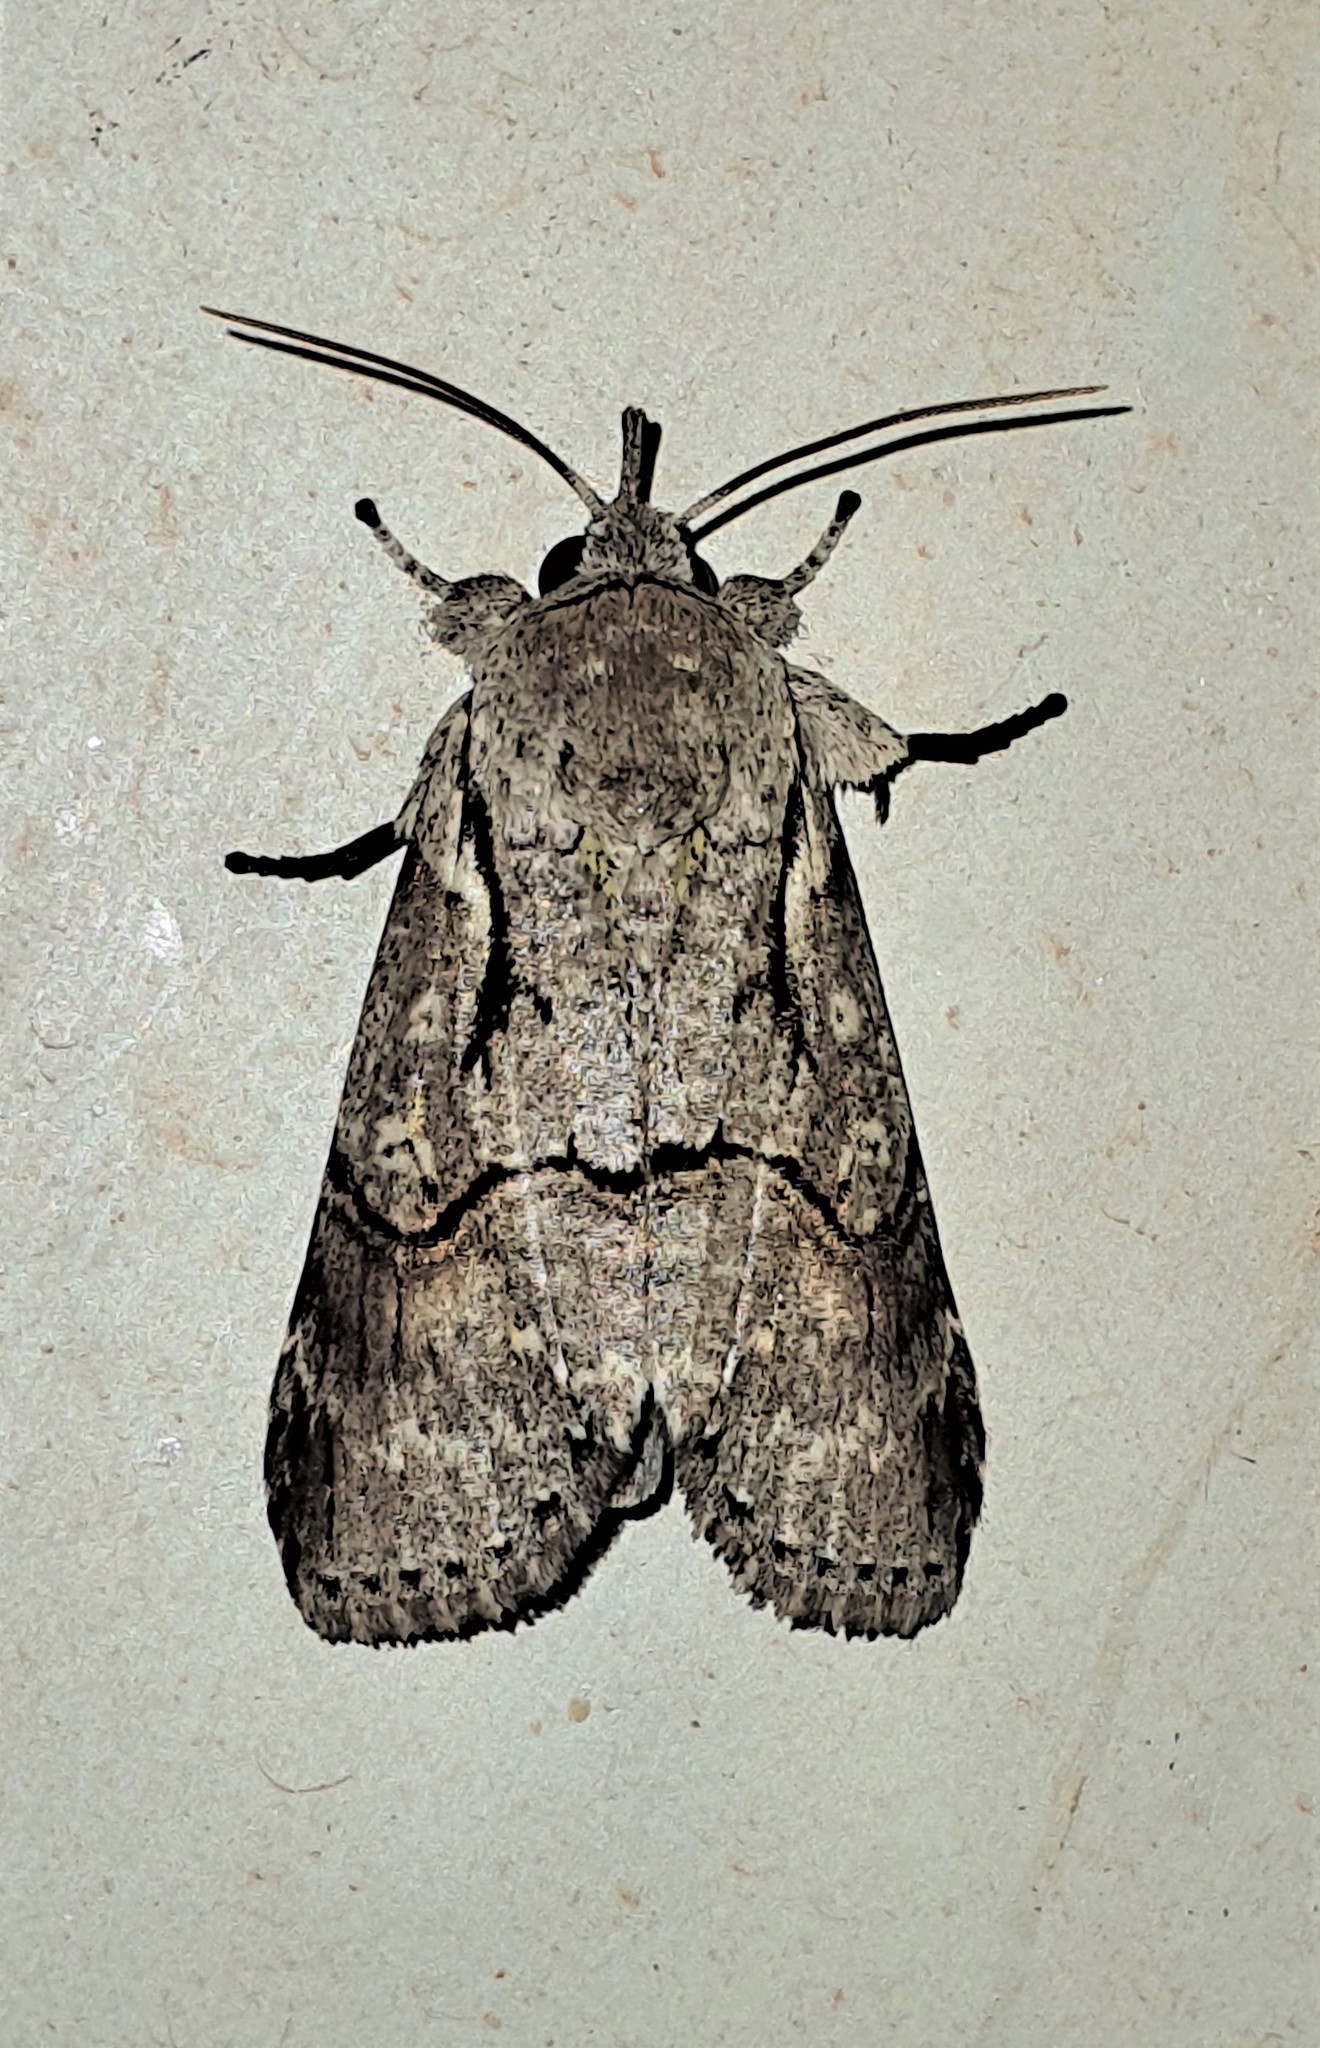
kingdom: Animalia
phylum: Arthropoda
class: Insecta
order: Lepidoptera
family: Nolidae
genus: Iscadia
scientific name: Iscadia furcifera
